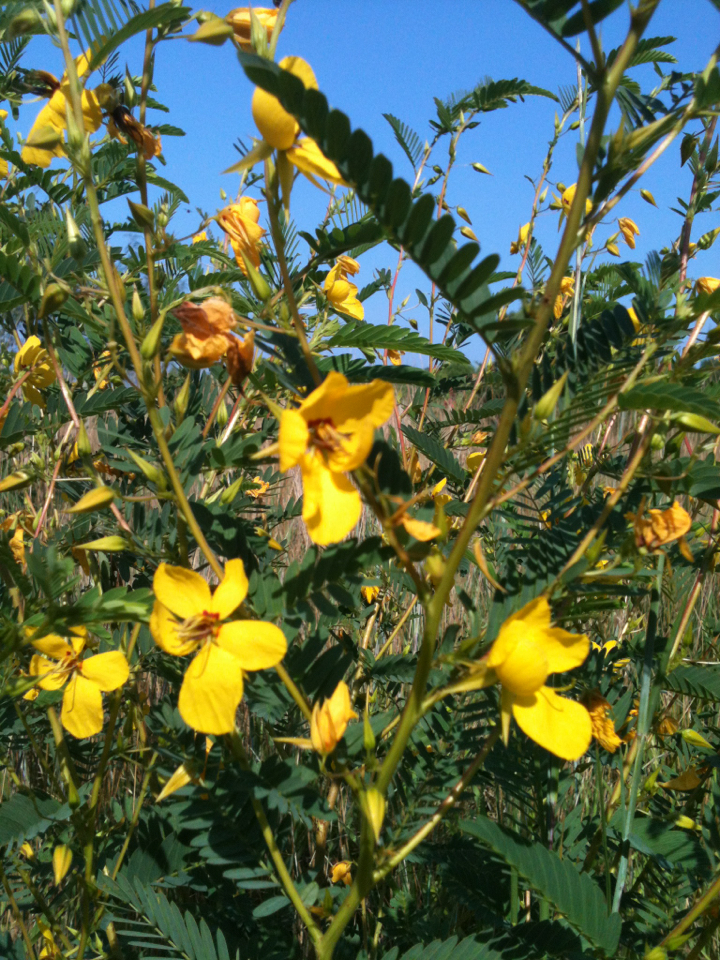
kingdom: Plantae
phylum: Tracheophyta
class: Magnoliopsida
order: Fabales
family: Fabaceae
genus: Chamaecrista
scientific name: Chamaecrista fasciculata
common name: Golden cassia
